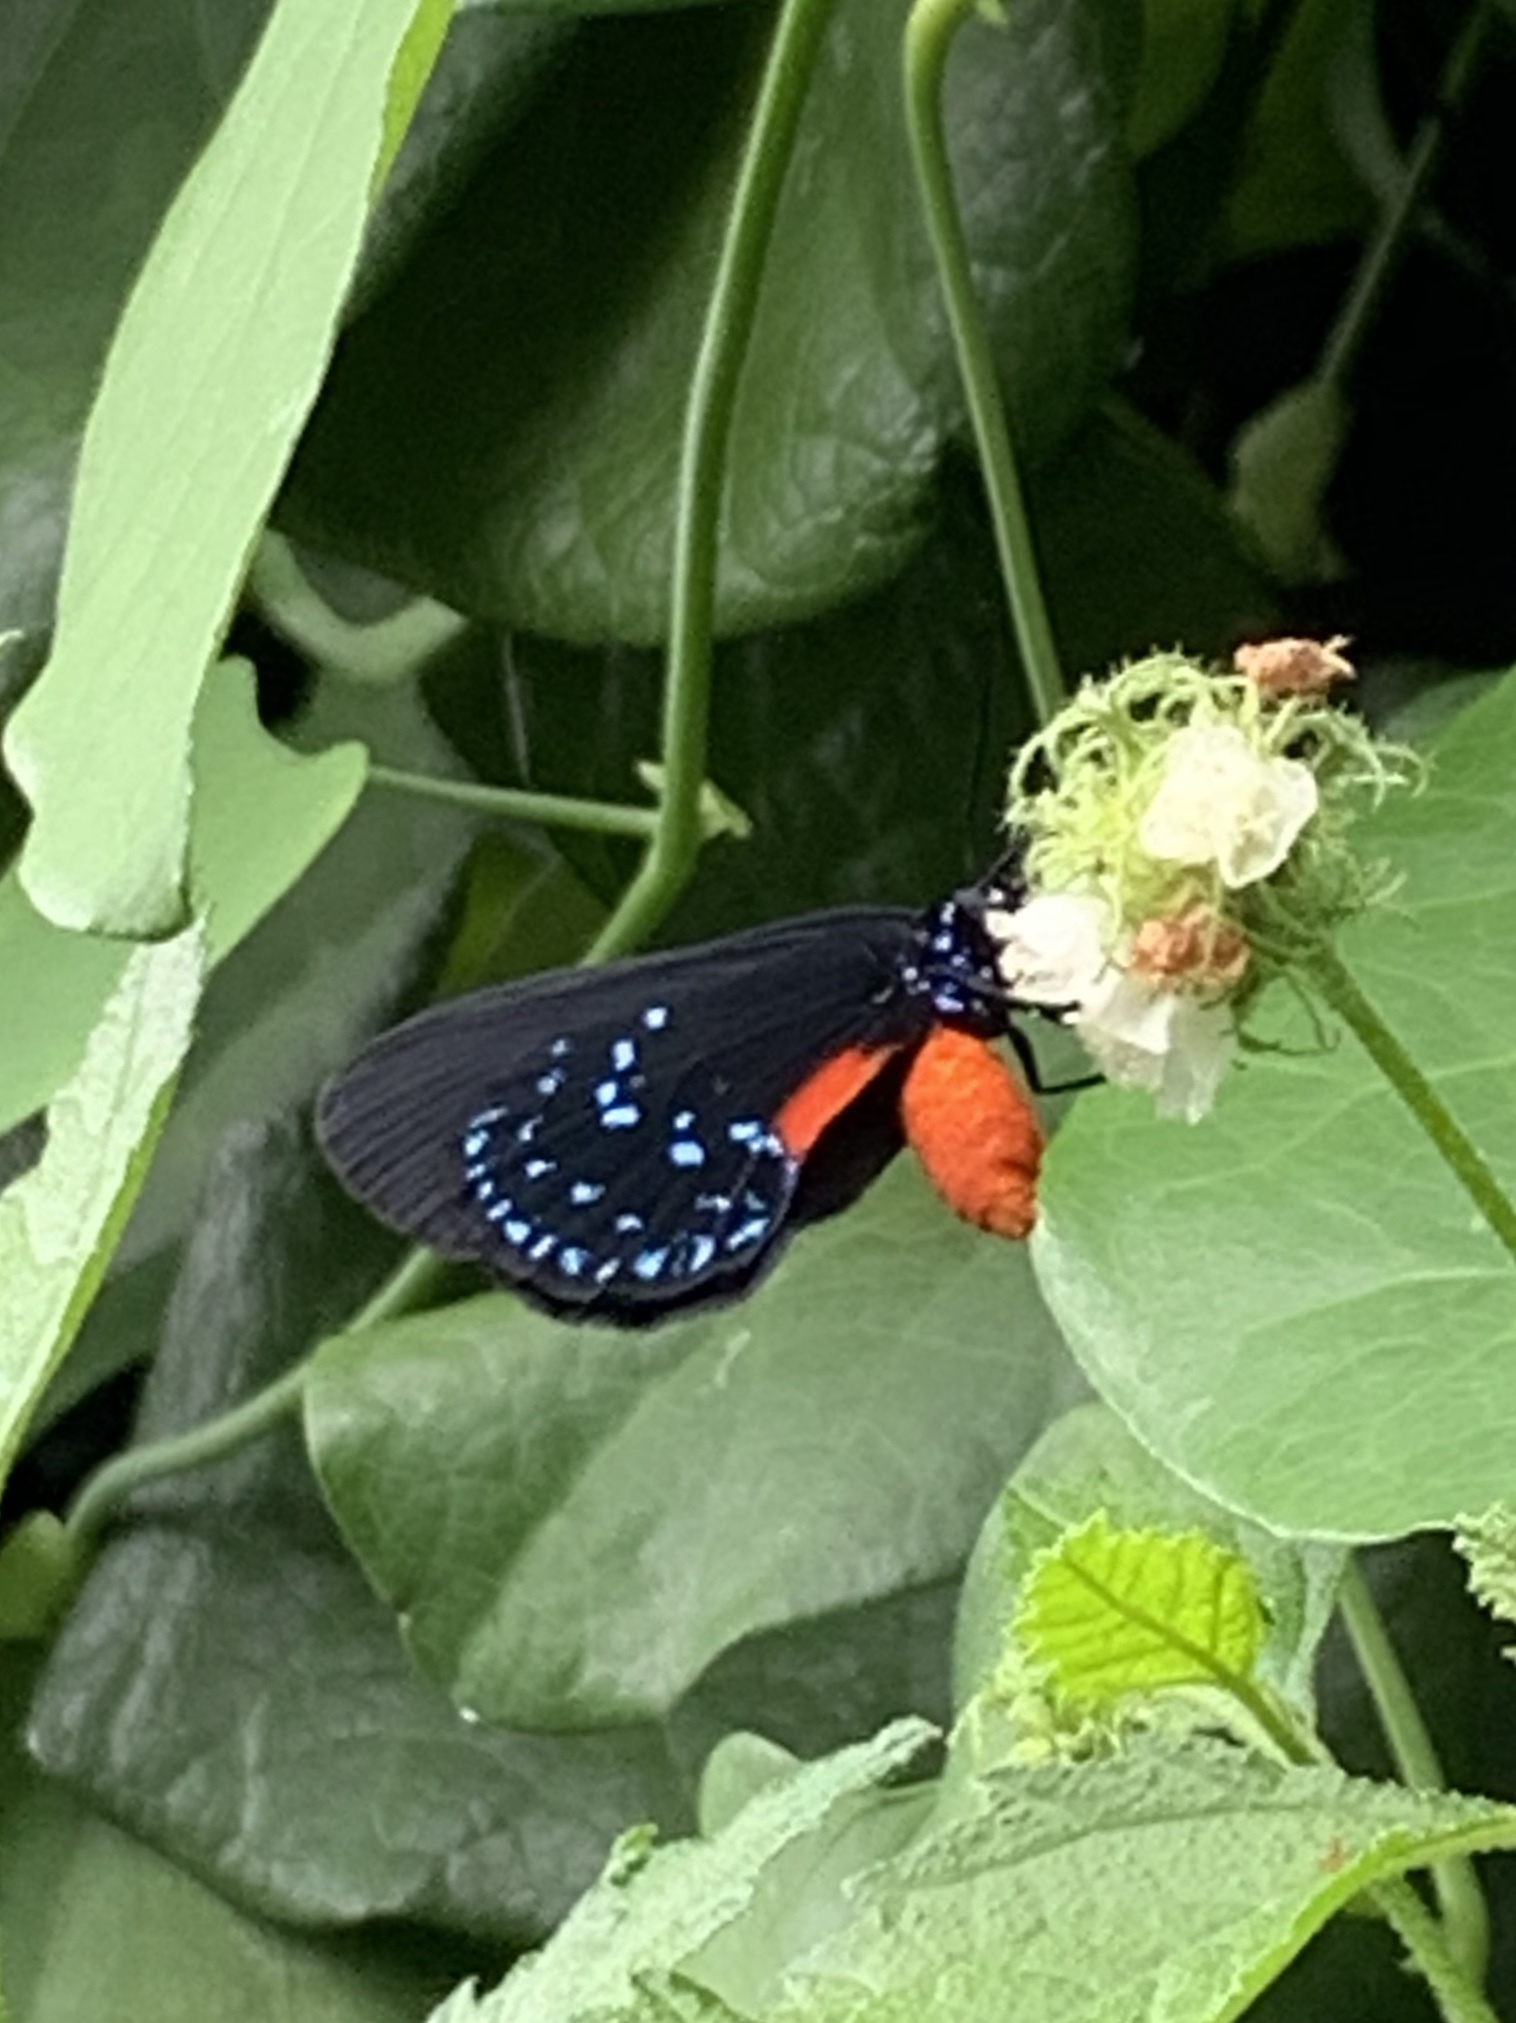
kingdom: Animalia
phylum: Arthropoda
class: Insecta
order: Lepidoptera
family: Lycaenidae
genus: Eumaeus
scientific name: Eumaeus atala
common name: Atala
